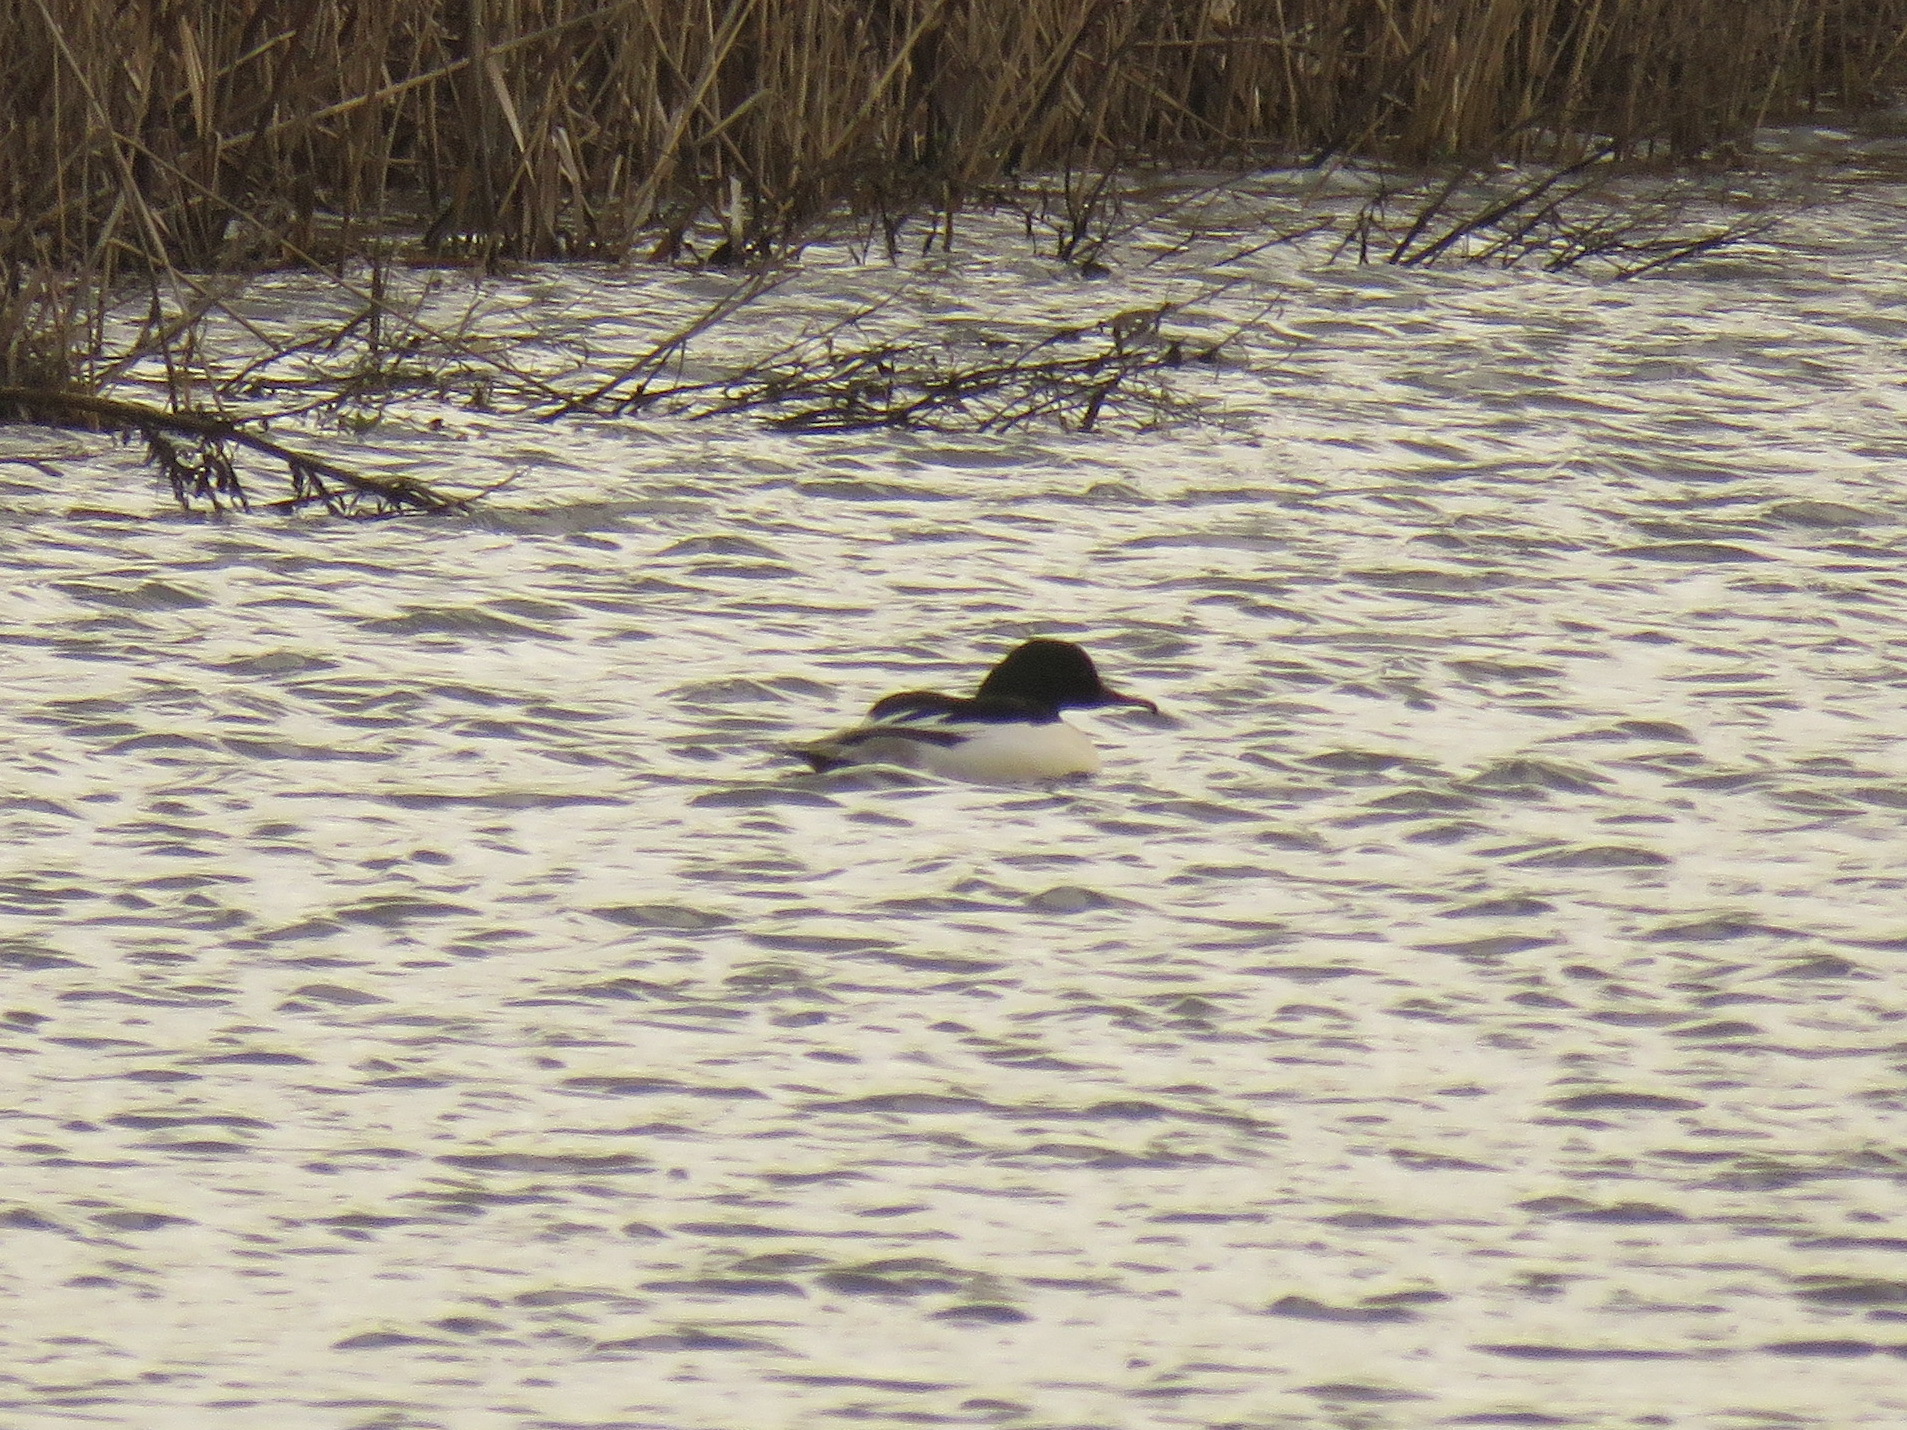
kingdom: Animalia
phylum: Chordata
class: Aves
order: Anseriformes
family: Anatidae
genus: Mergus
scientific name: Mergus merganser
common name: Common merganser
